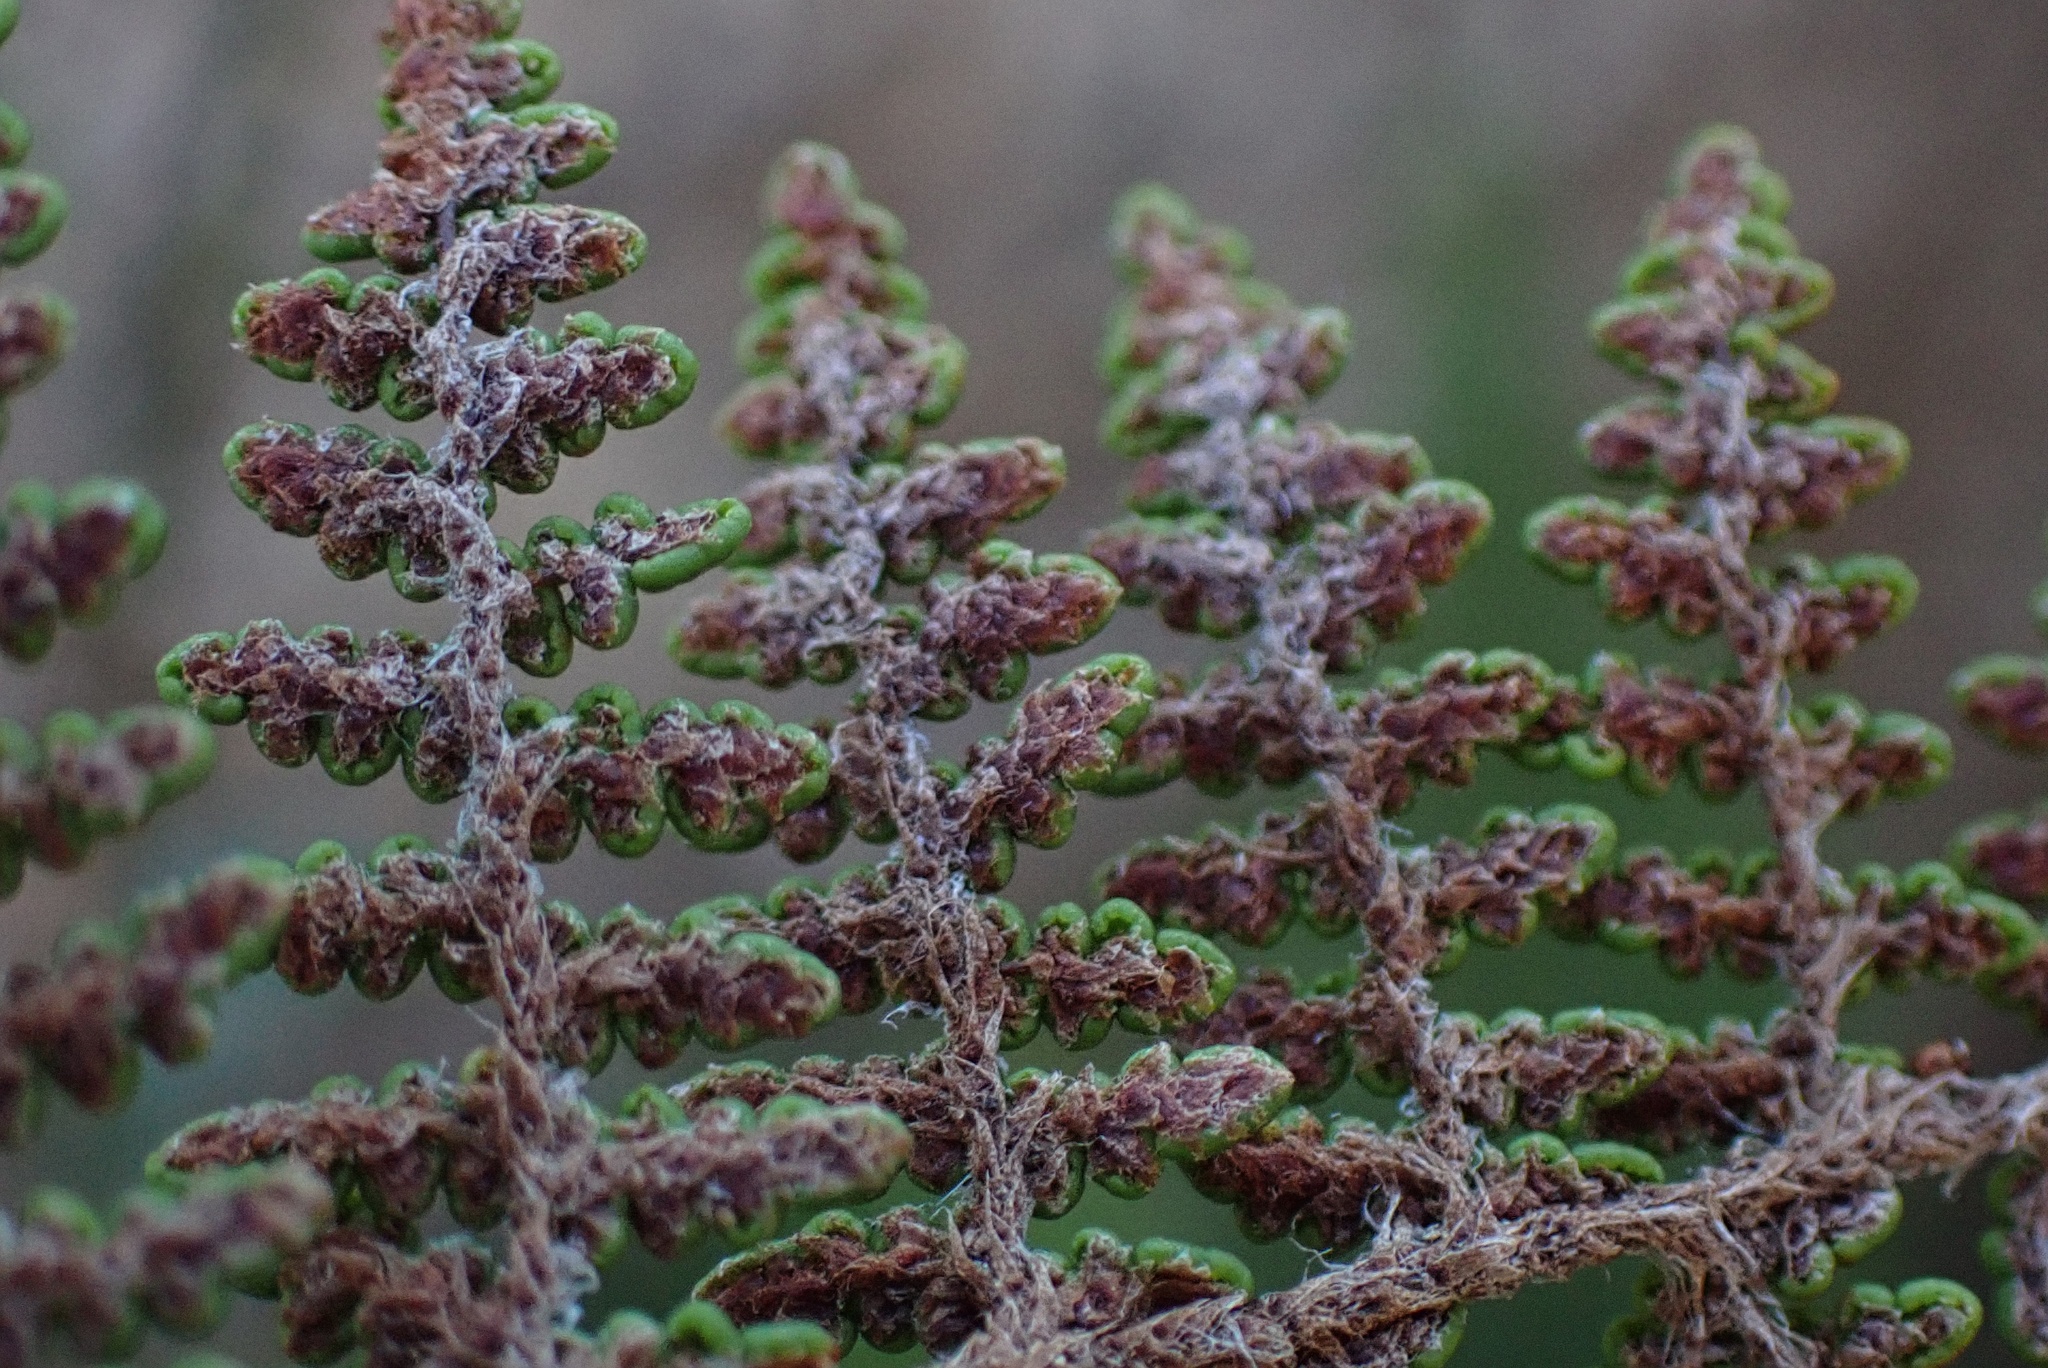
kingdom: Plantae
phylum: Tracheophyta
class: Polypodiopsida
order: Polypodiales
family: Pteridaceae
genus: Myriopteris
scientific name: Myriopteris clevelandii
